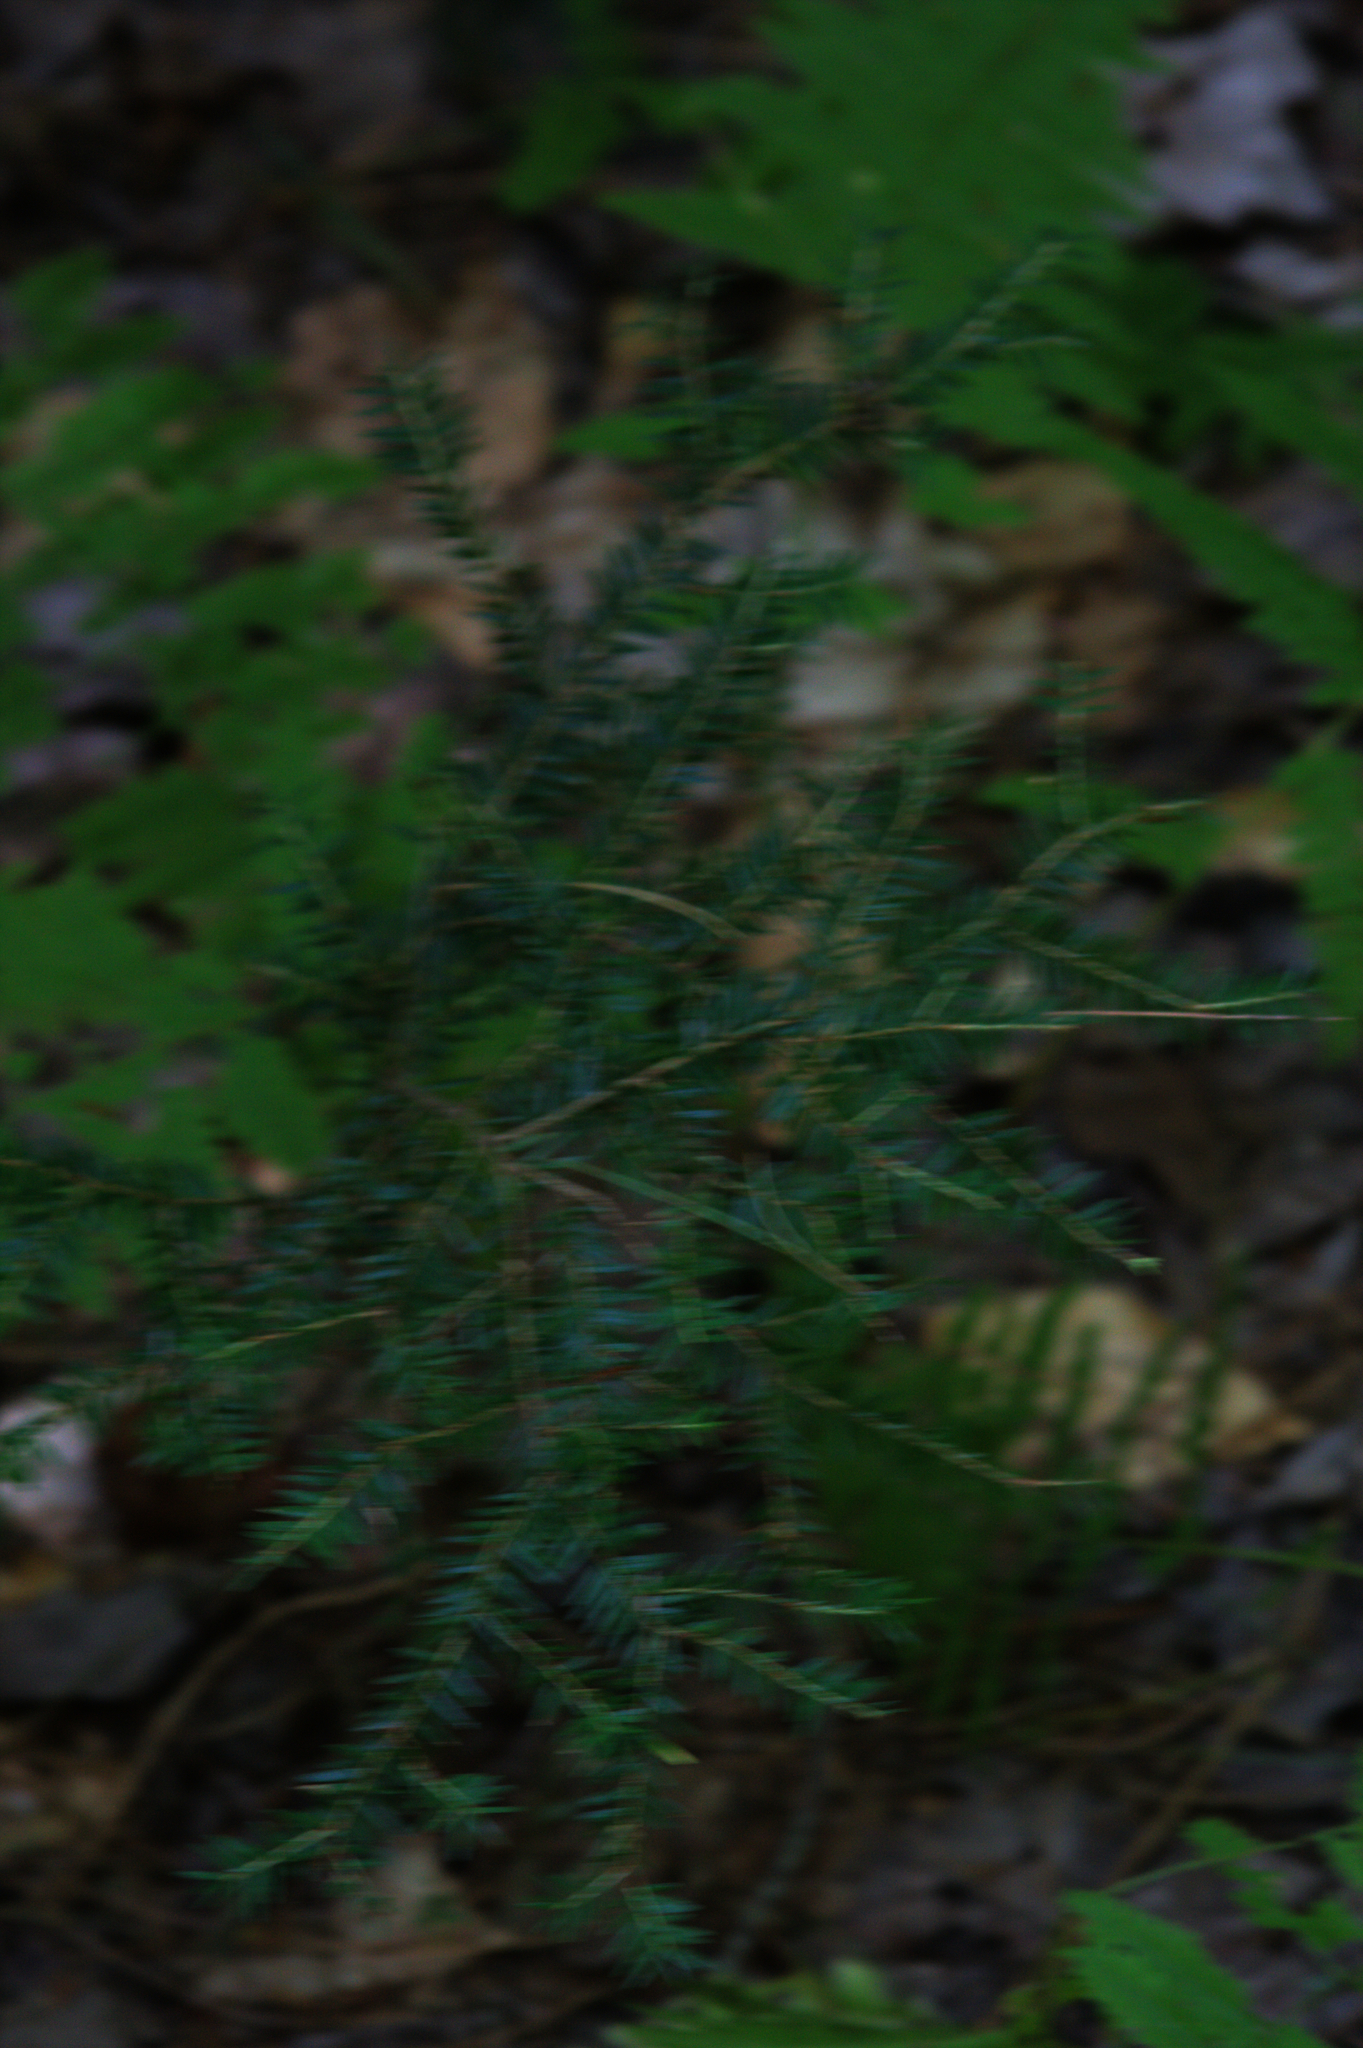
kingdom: Plantae
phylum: Tracheophyta
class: Pinopsida
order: Pinales
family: Pinaceae
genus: Tsuga
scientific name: Tsuga canadensis
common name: Eastern hemlock
